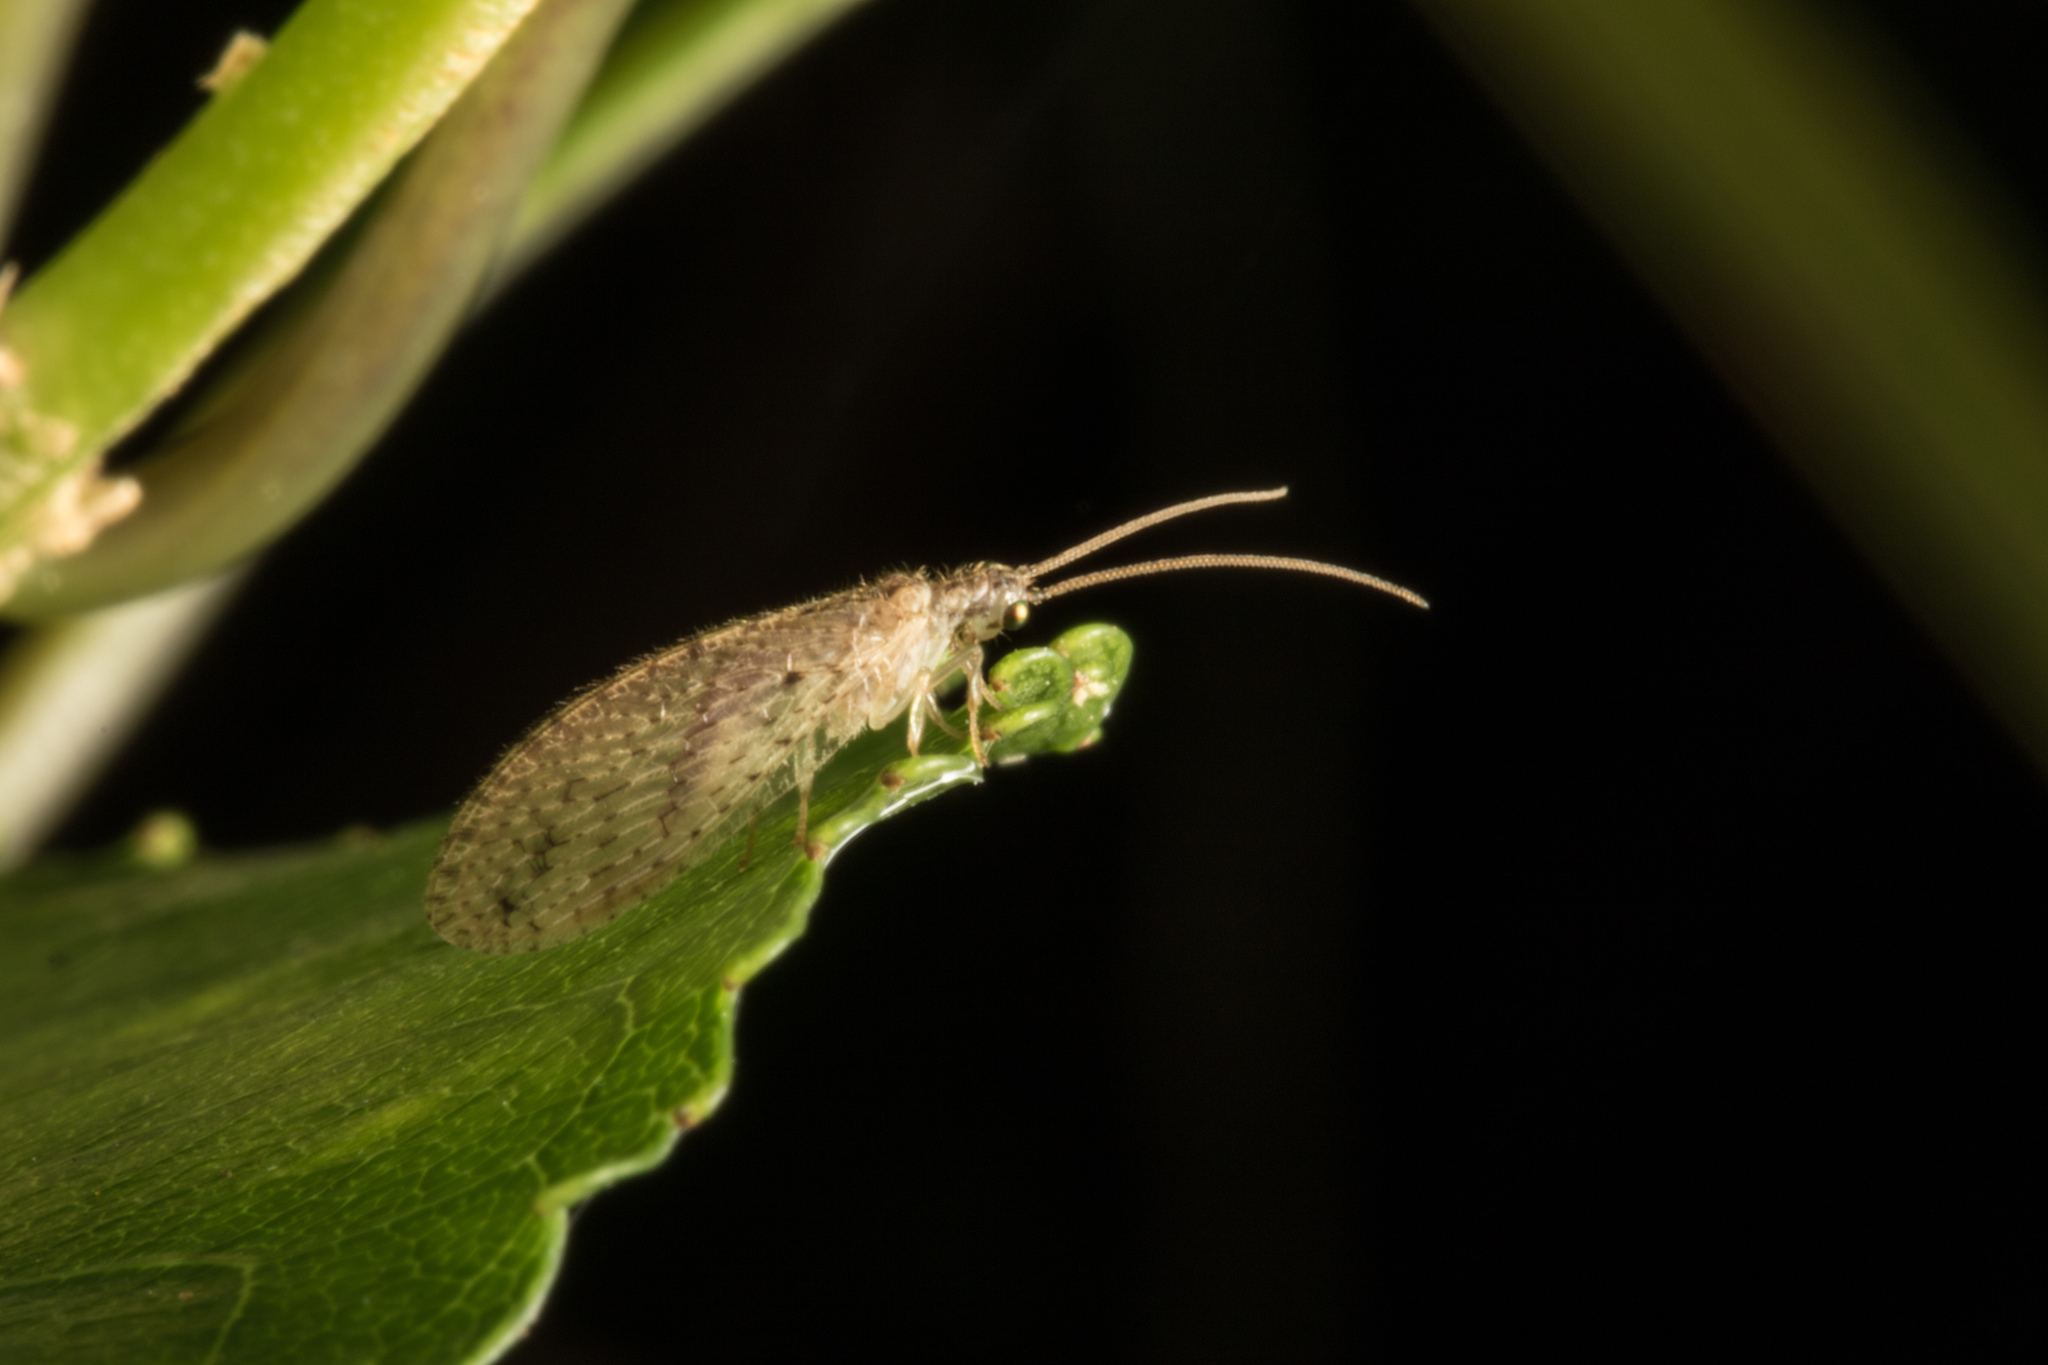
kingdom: Animalia
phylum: Arthropoda
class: Insecta
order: Neuroptera
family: Hemerobiidae
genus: Micromus
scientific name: Micromus tasmaniae
